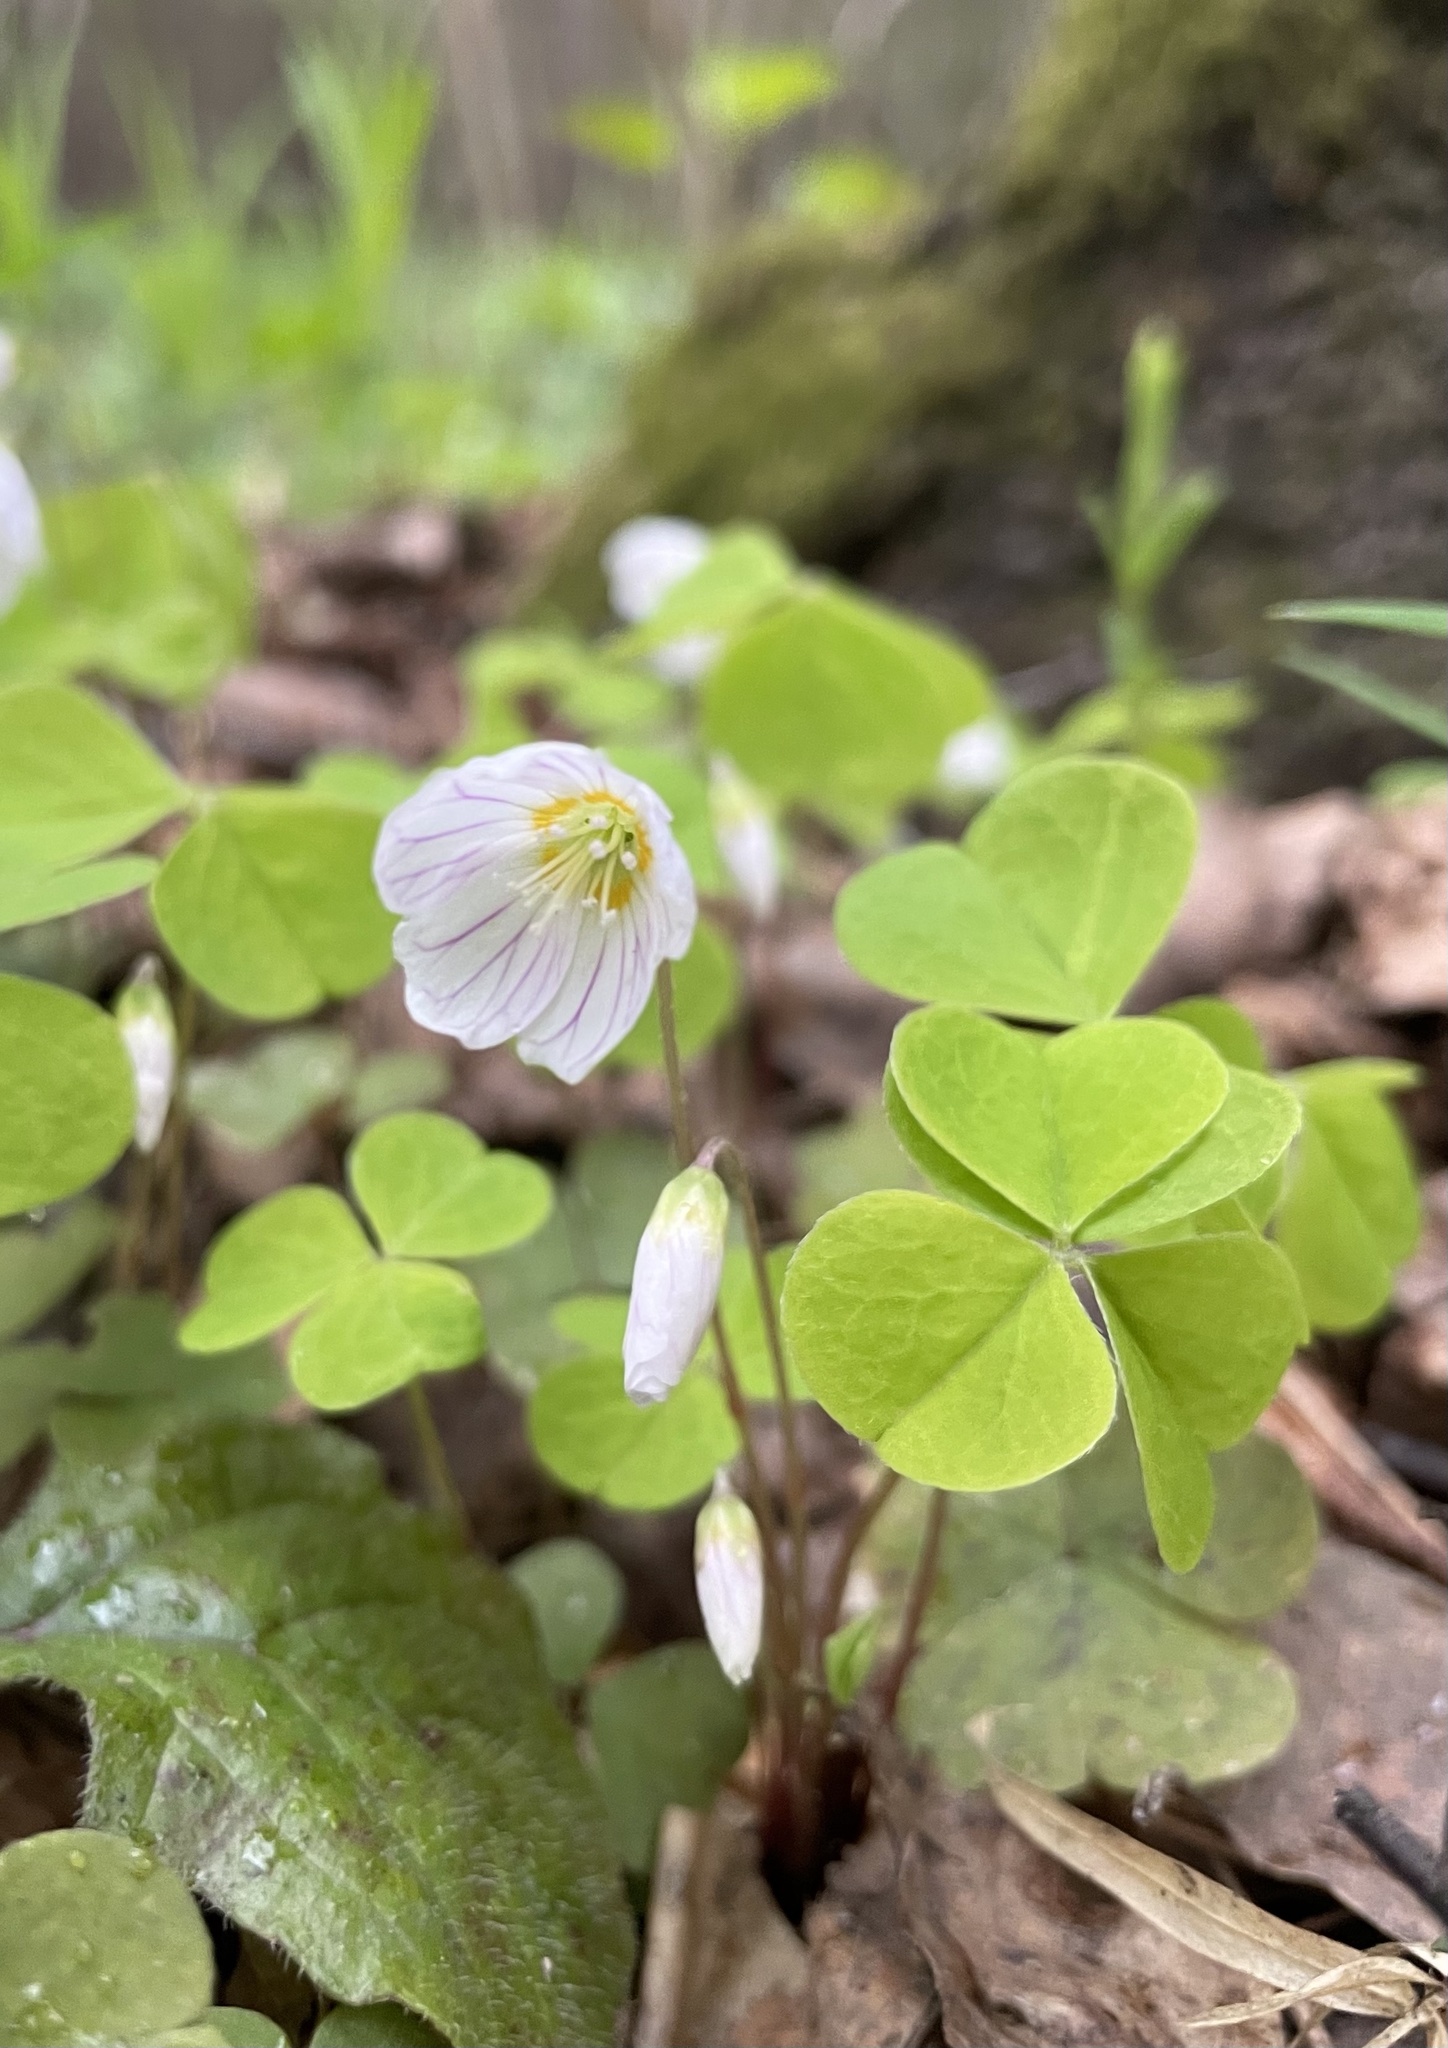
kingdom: Plantae
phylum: Tracheophyta
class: Magnoliopsida
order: Oxalidales
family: Oxalidaceae
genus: Oxalis
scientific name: Oxalis acetosella
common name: Wood-sorrel
